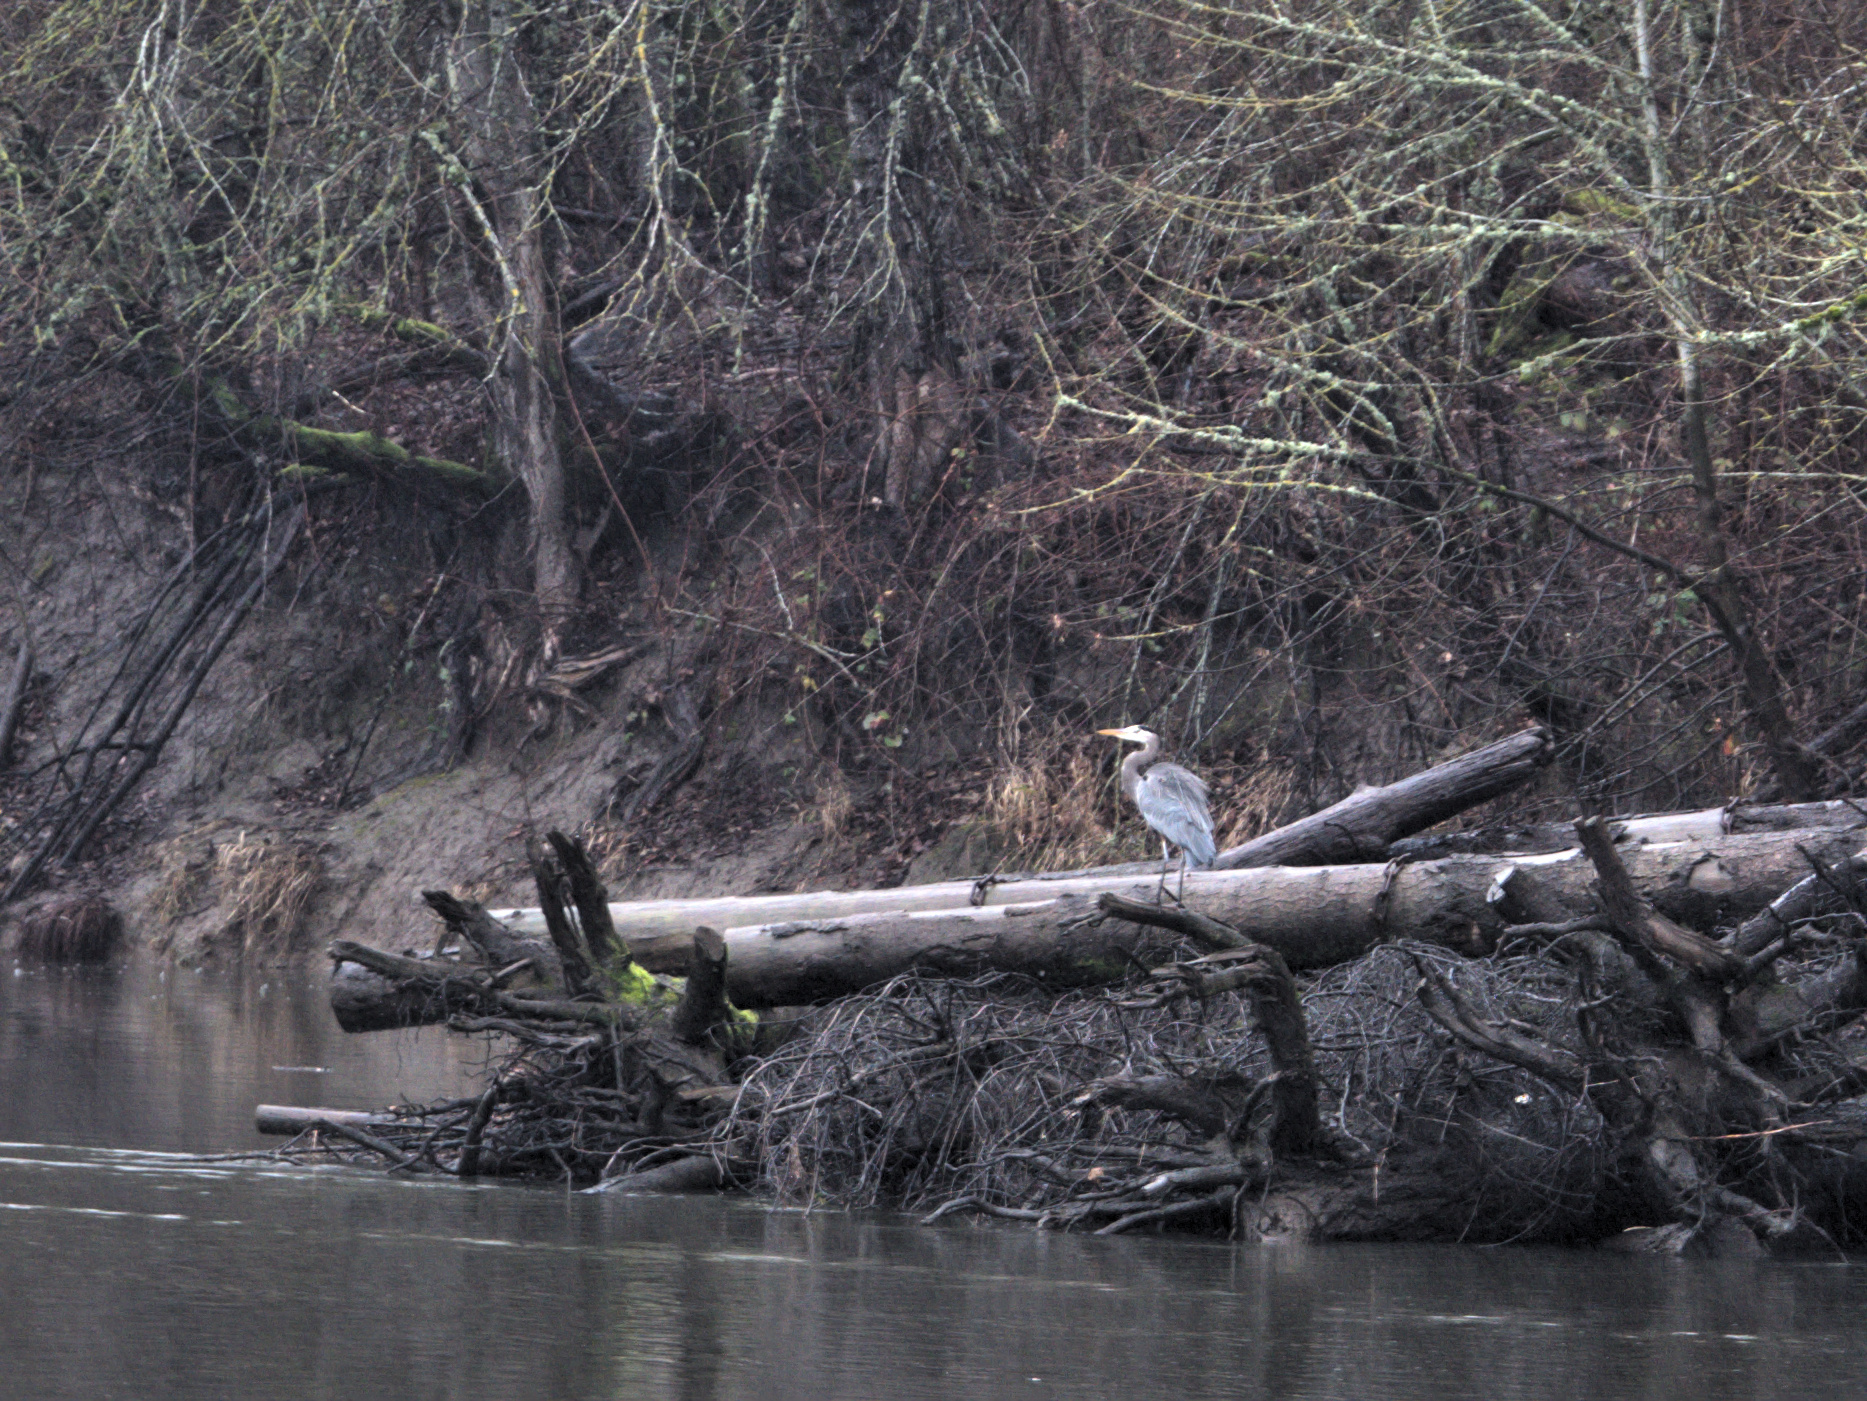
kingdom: Animalia
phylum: Chordata
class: Aves
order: Pelecaniformes
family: Ardeidae
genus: Ardea
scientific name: Ardea herodias
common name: Great blue heron
